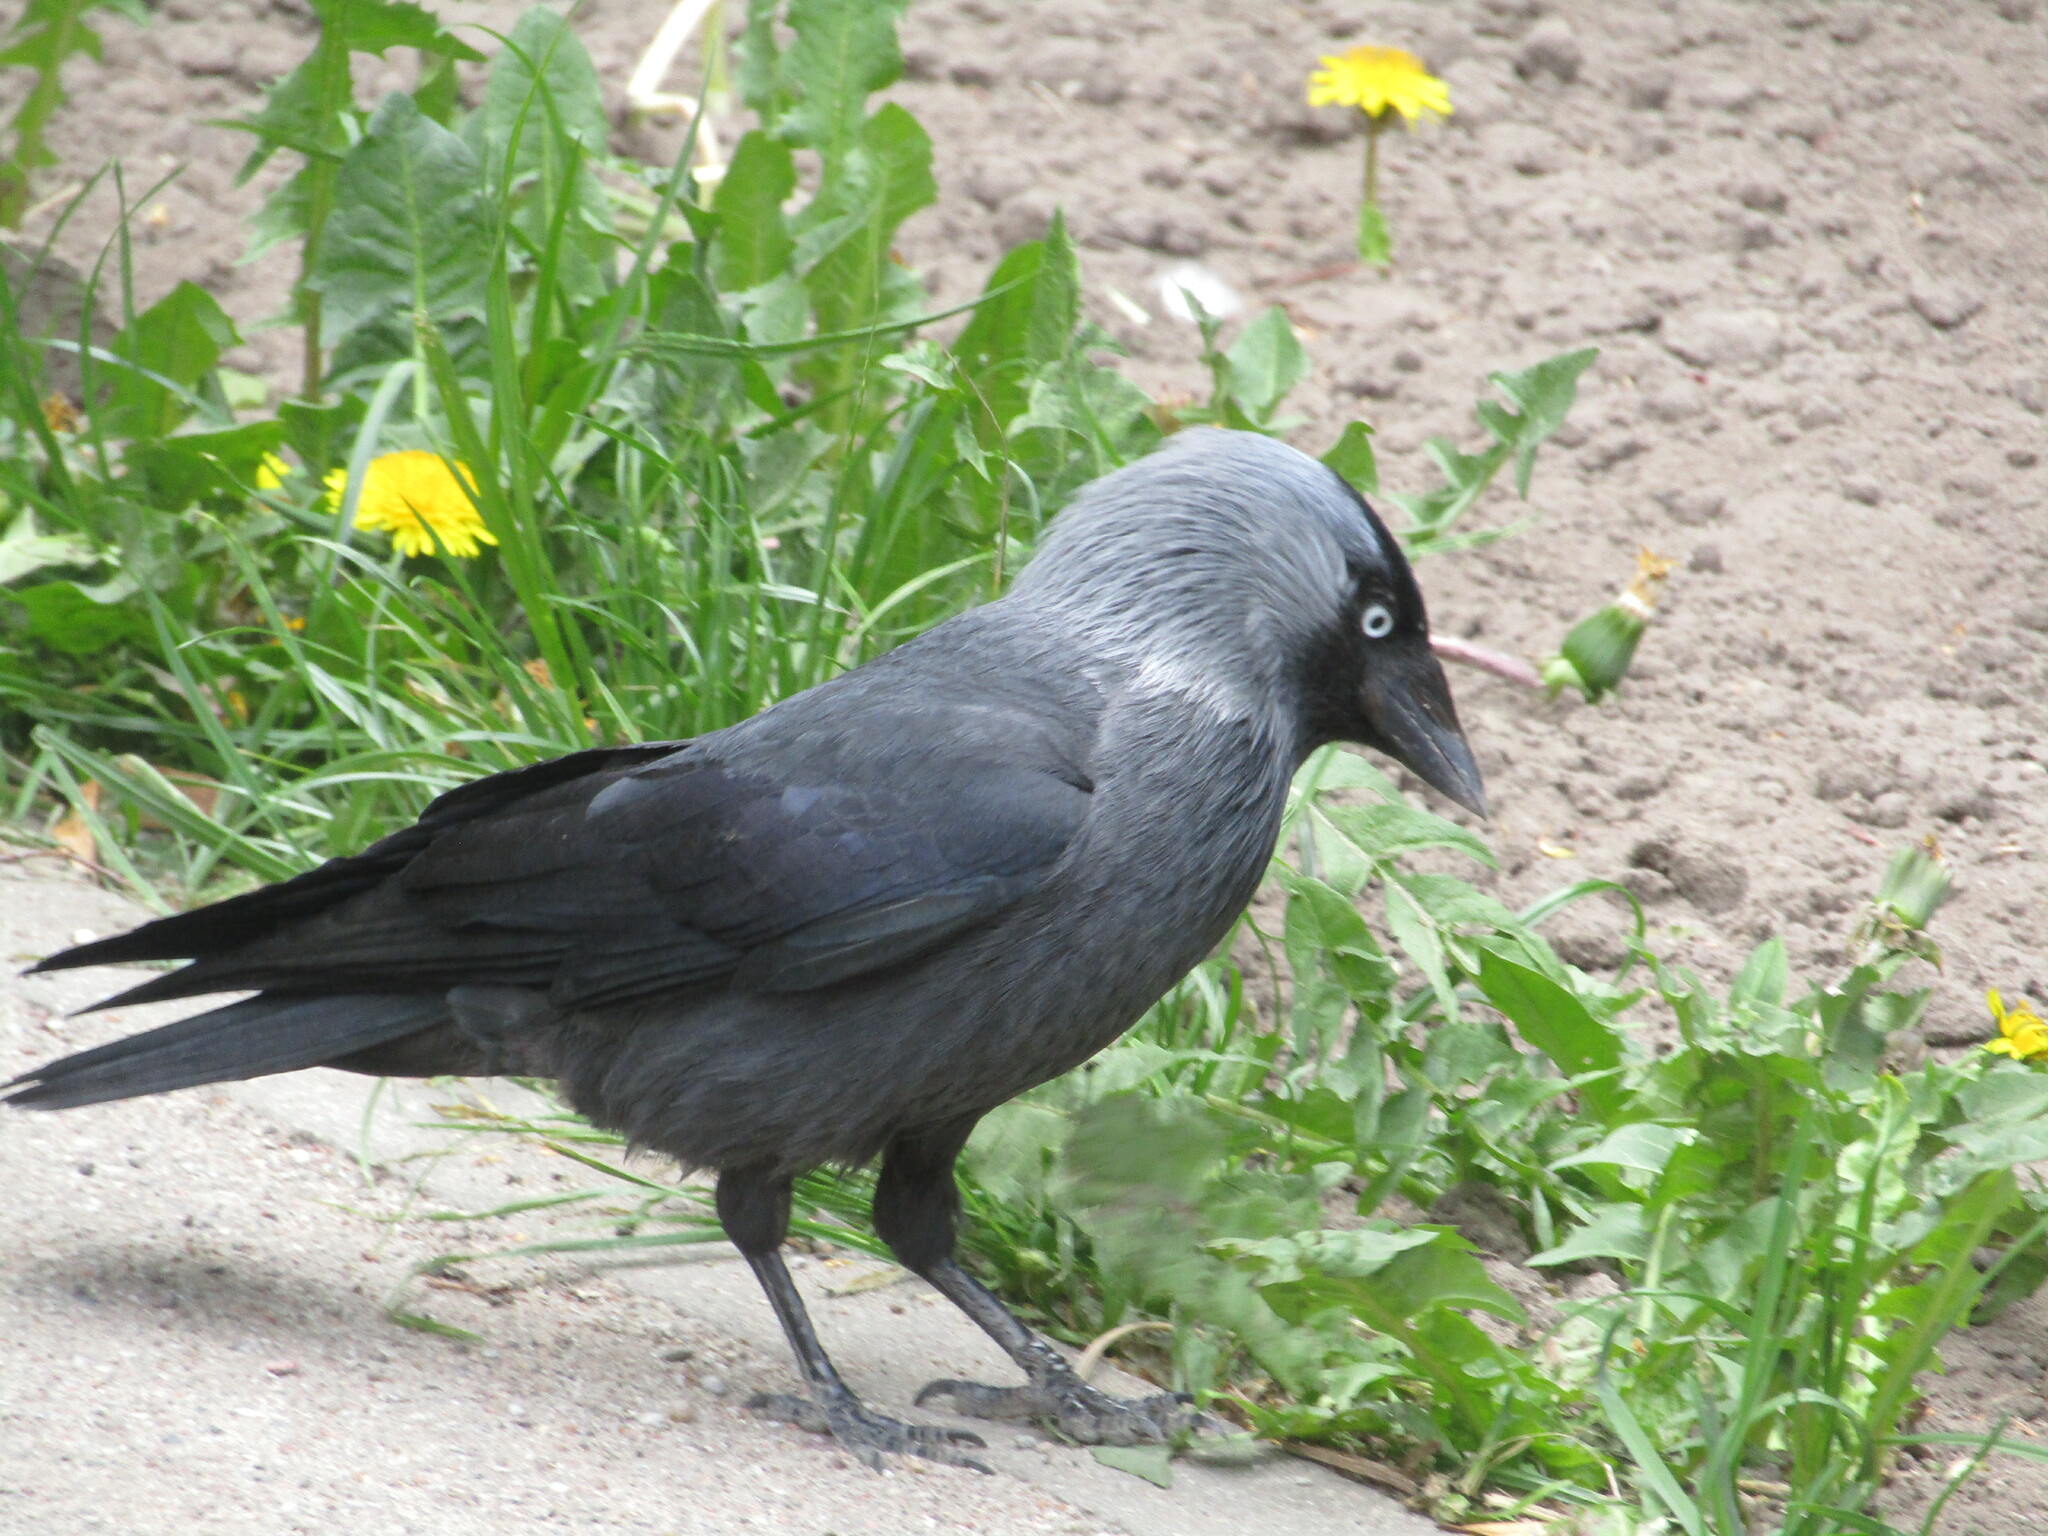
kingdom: Animalia
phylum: Chordata
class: Aves
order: Passeriformes
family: Corvidae
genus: Coloeus
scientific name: Coloeus monedula
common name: Western jackdaw
